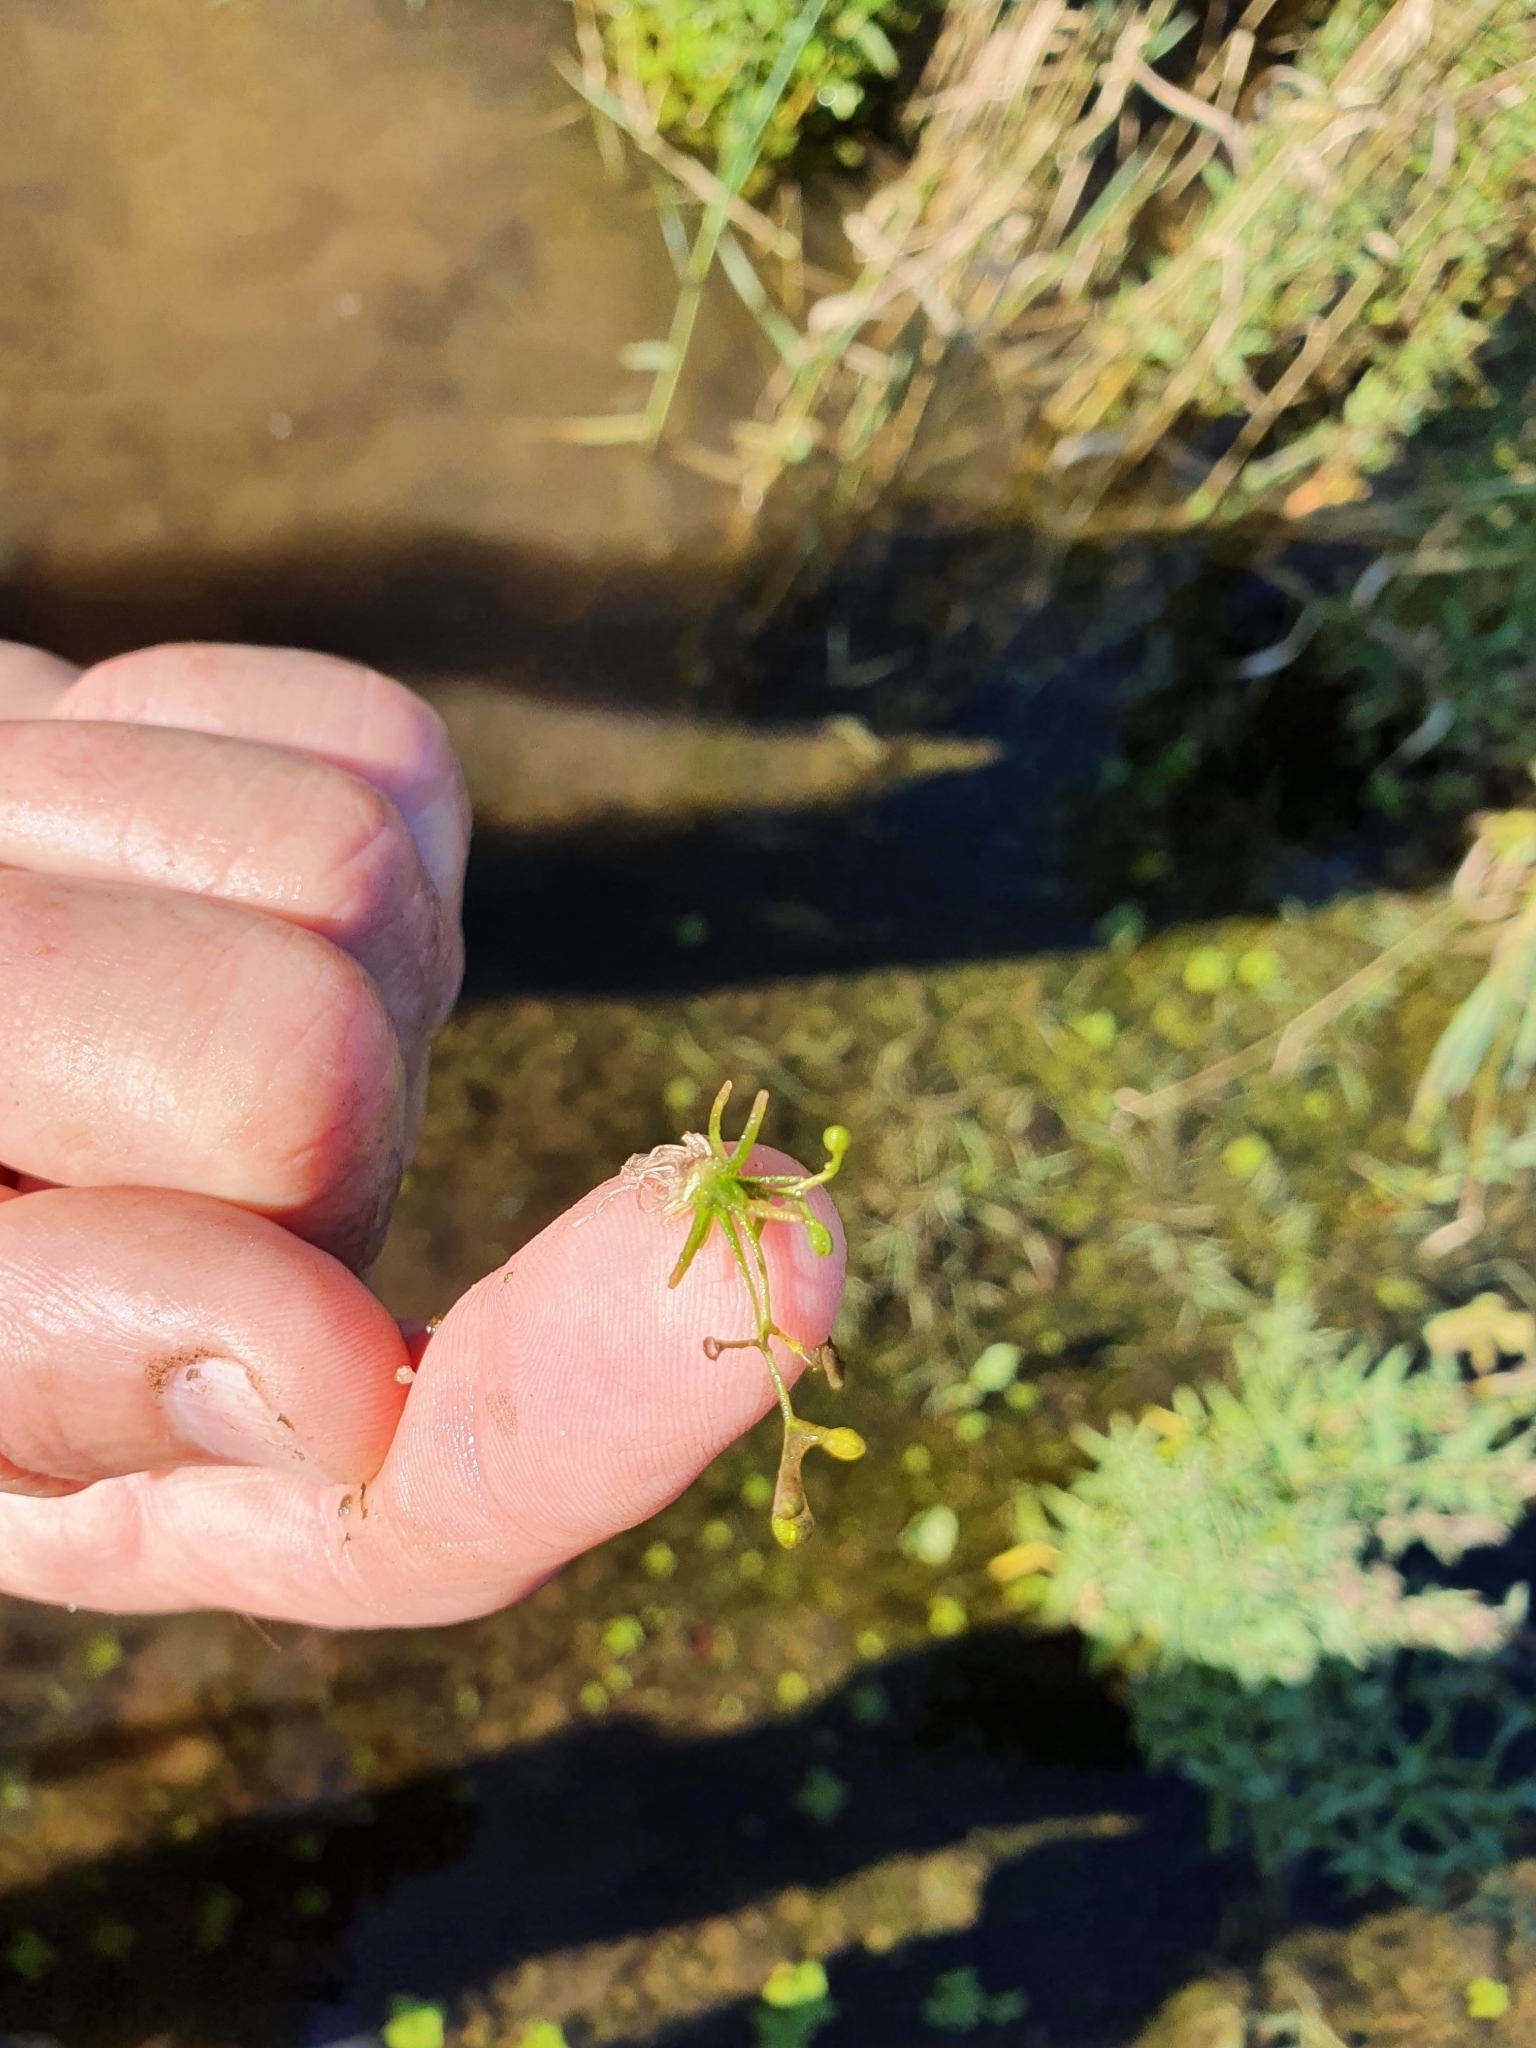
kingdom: Plantae
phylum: Tracheophyta
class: Magnoliopsida
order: Brassicales
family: Brassicaceae
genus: Subularia
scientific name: Subularia aquatica
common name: Awlwort
